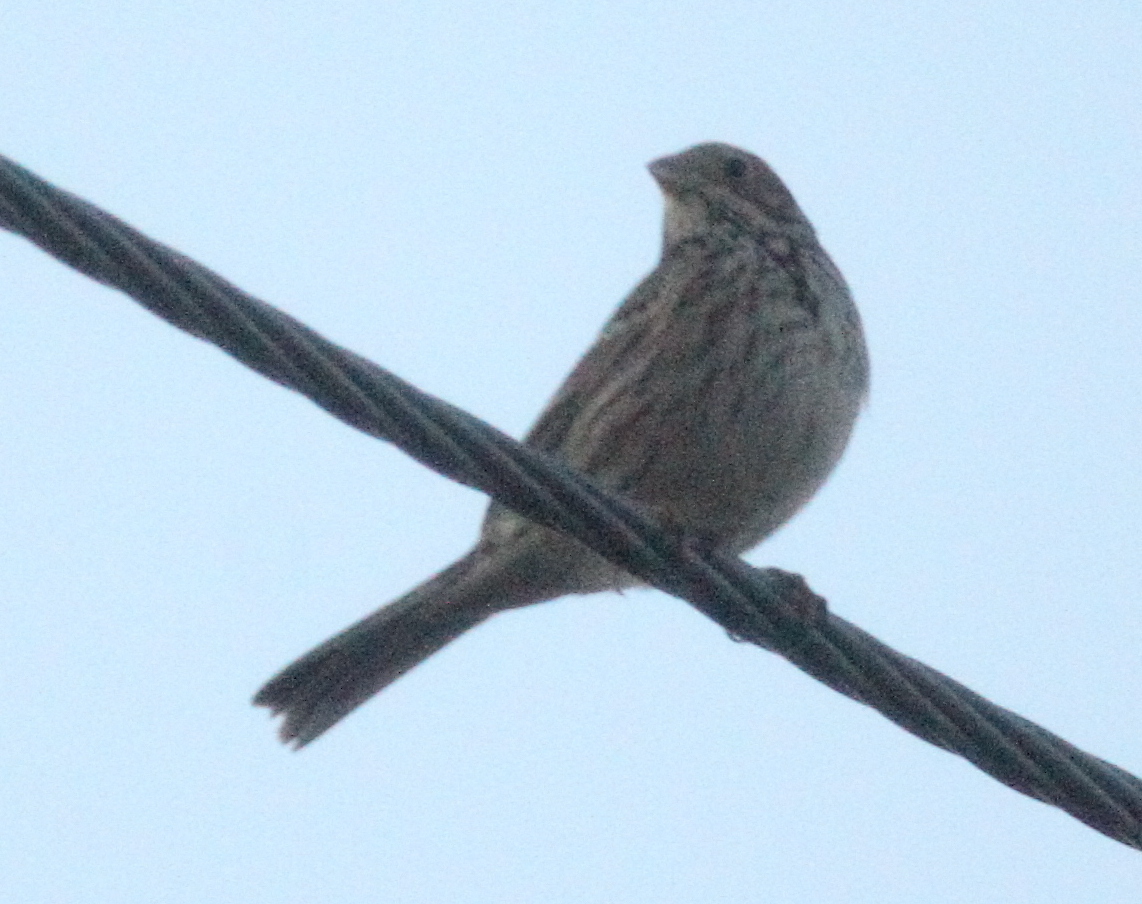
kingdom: Animalia
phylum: Chordata
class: Aves
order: Passeriformes
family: Emberizidae
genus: Emberiza
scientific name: Emberiza calandra
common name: Corn bunting
